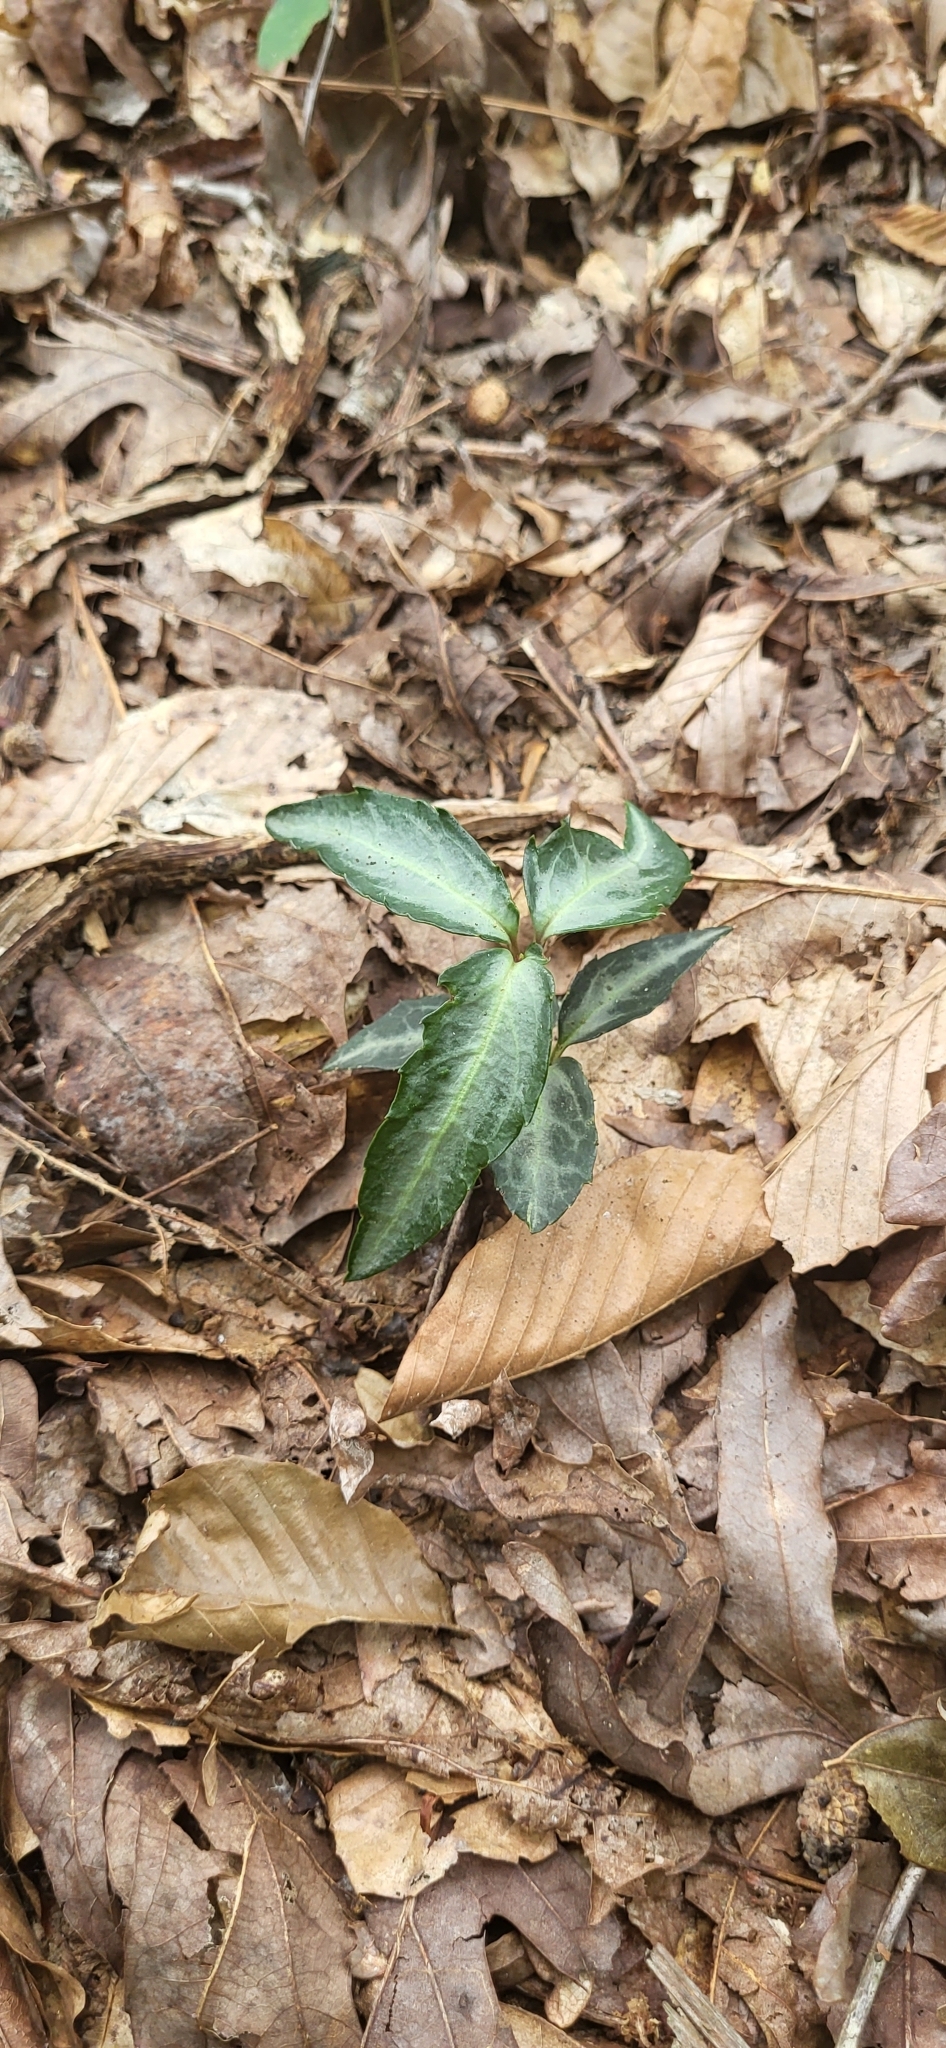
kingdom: Plantae
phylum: Tracheophyta
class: Magnoliopsida
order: Ericales
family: Ericaceae
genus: Chimaphila
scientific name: Chimaphila maculata
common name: Spotted pipsissewa
